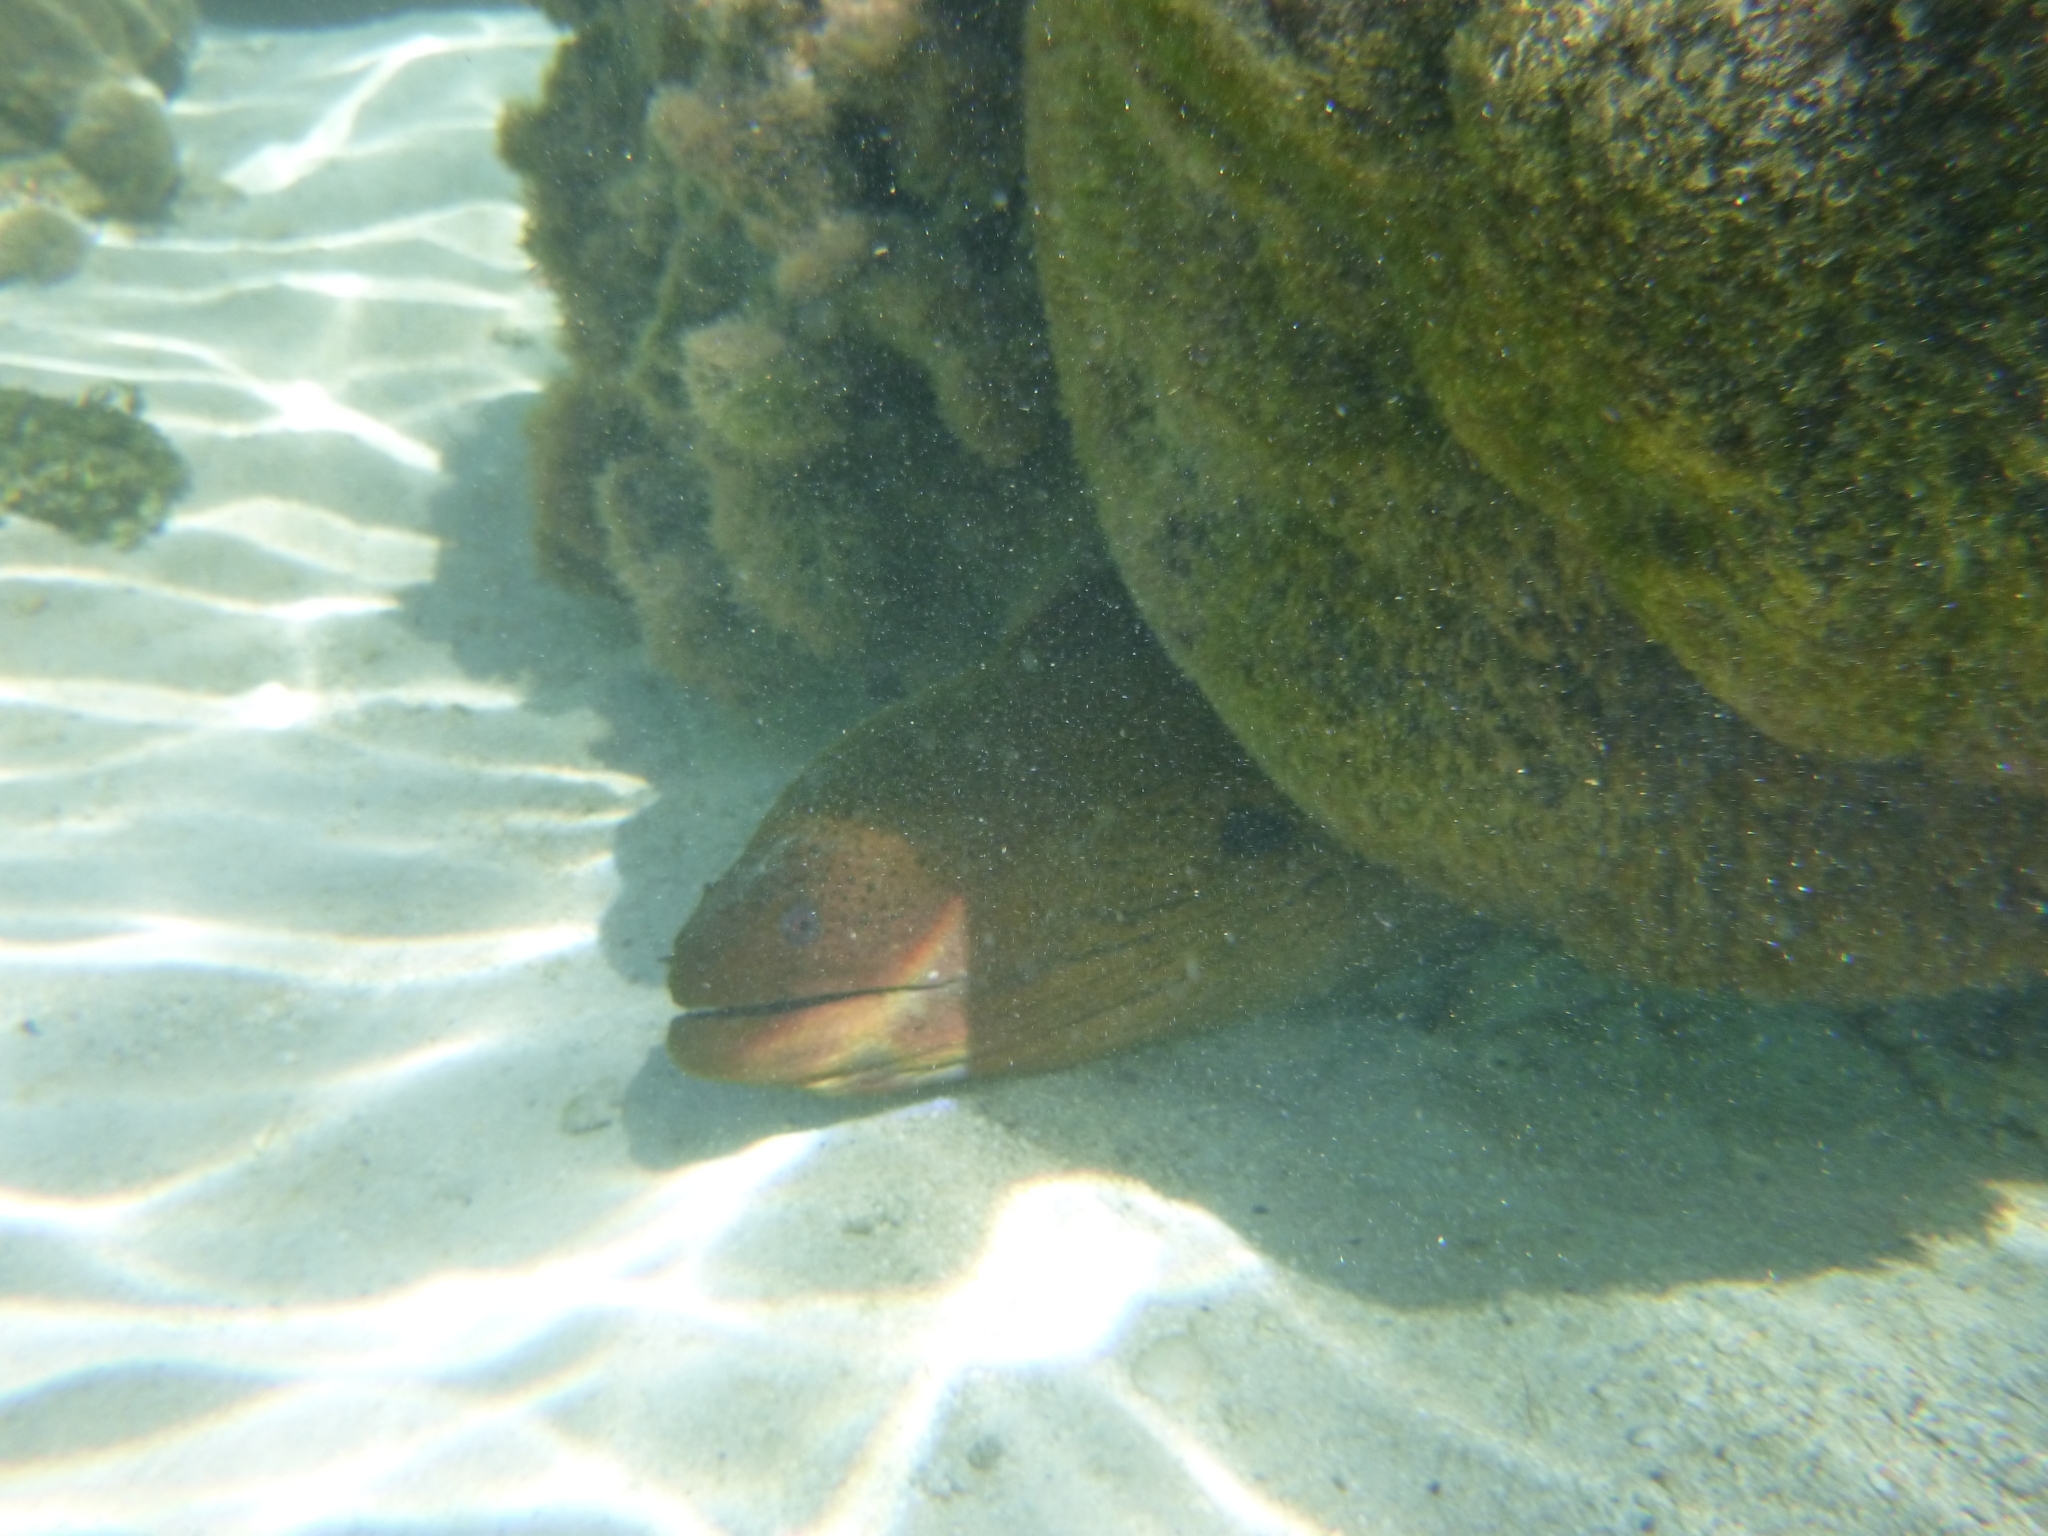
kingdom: Animalia
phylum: Chordata
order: Anguilliformes
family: Muraenidae
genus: Gymnothorax
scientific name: Gymnothorax javanicus
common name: Giant moray
